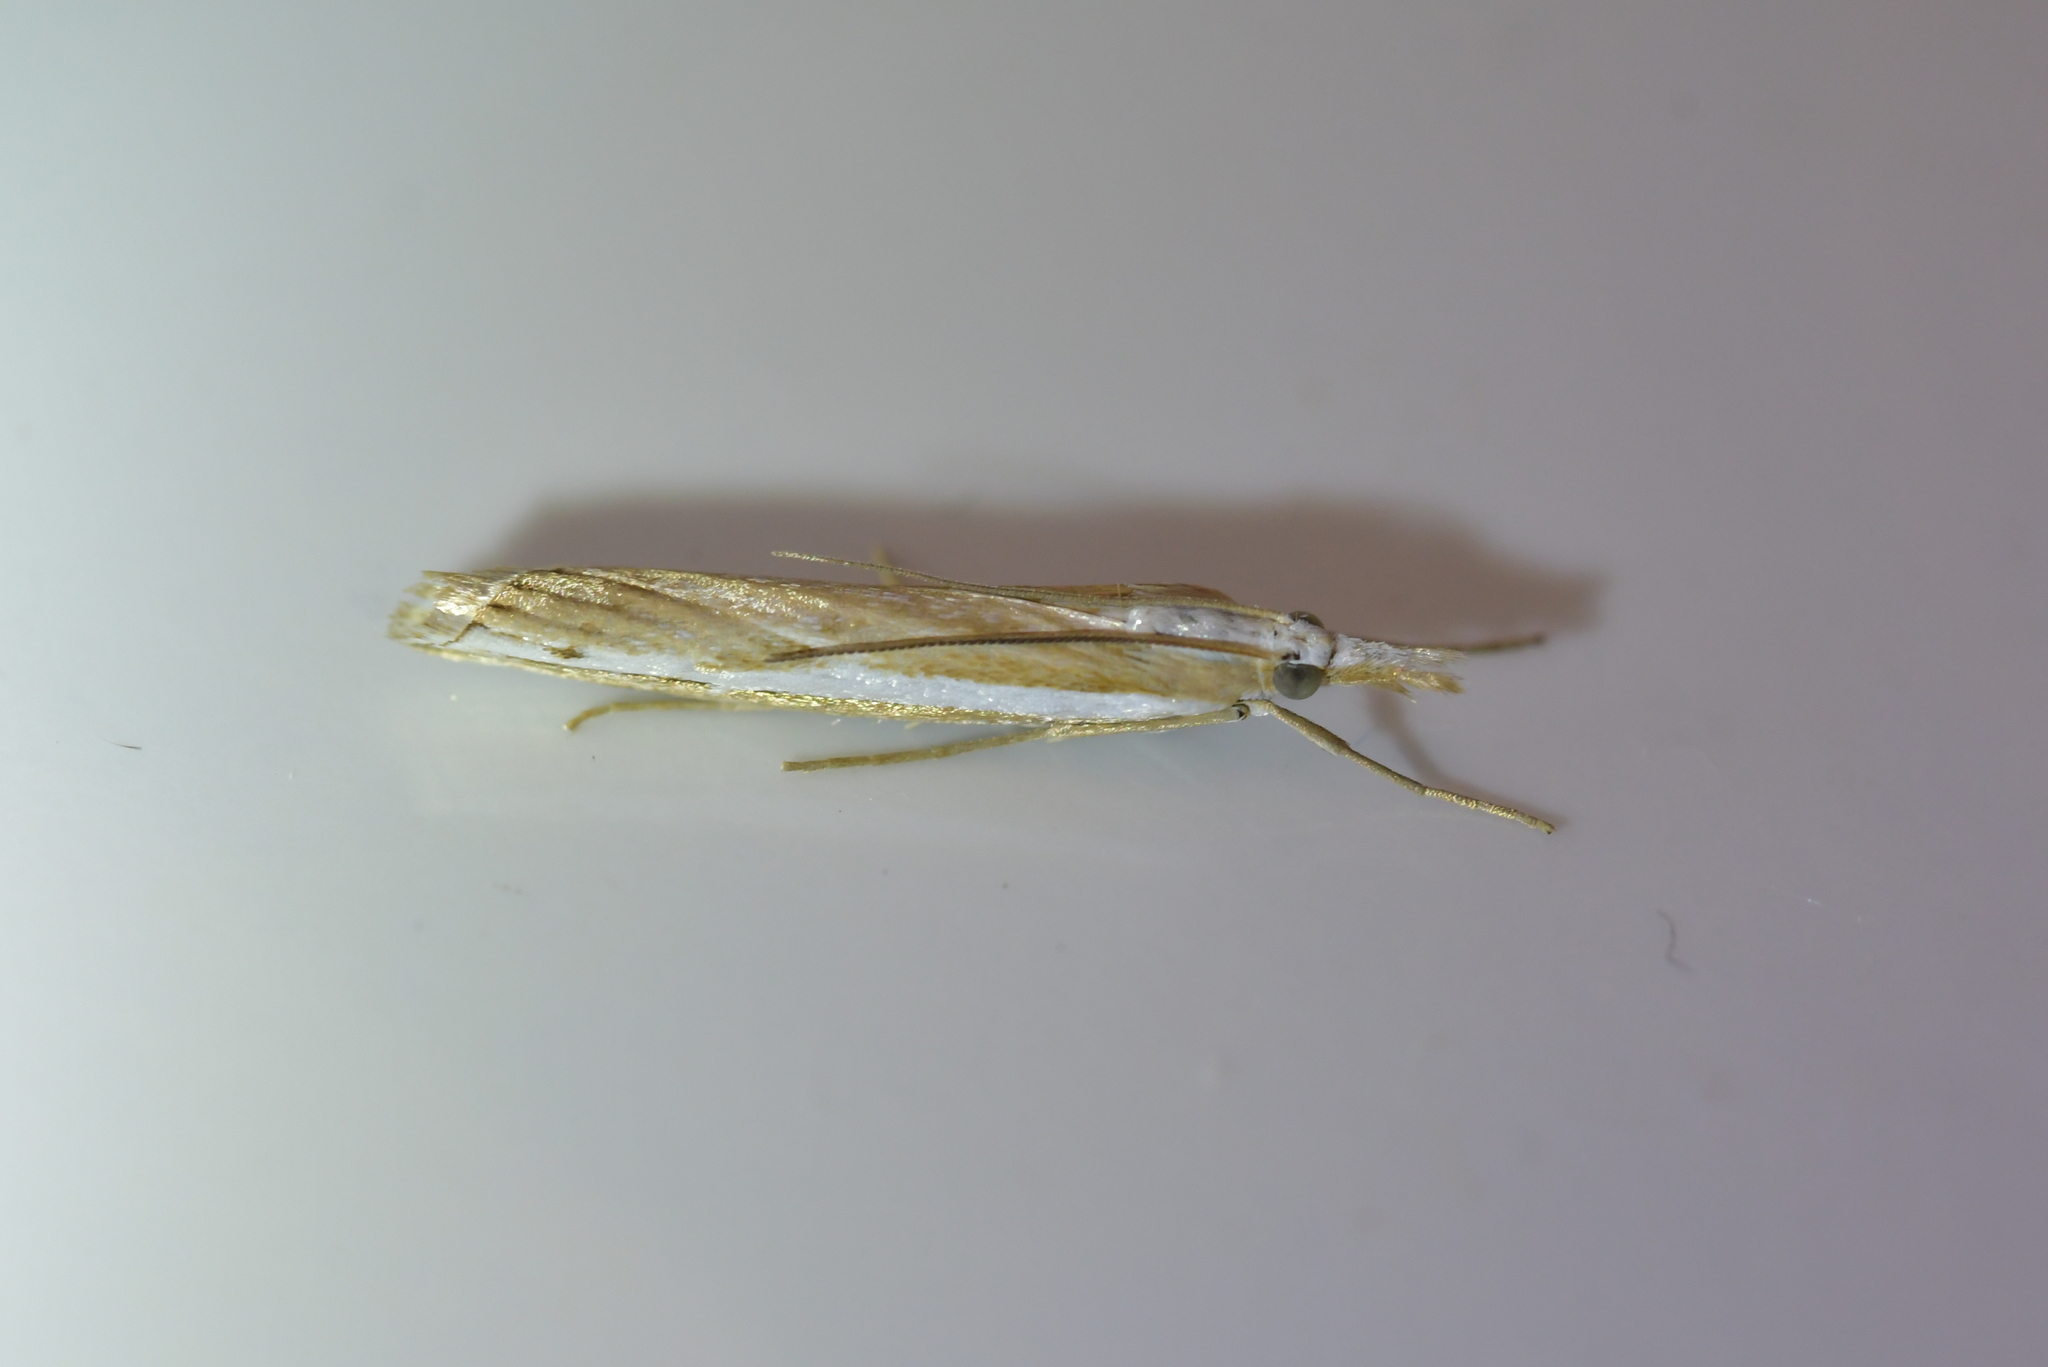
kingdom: Animalia
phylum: Arthropoda
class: Insecta
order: Lepidoptera
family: Crambidae
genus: Orocrambus
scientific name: Orocrambus vittellus
